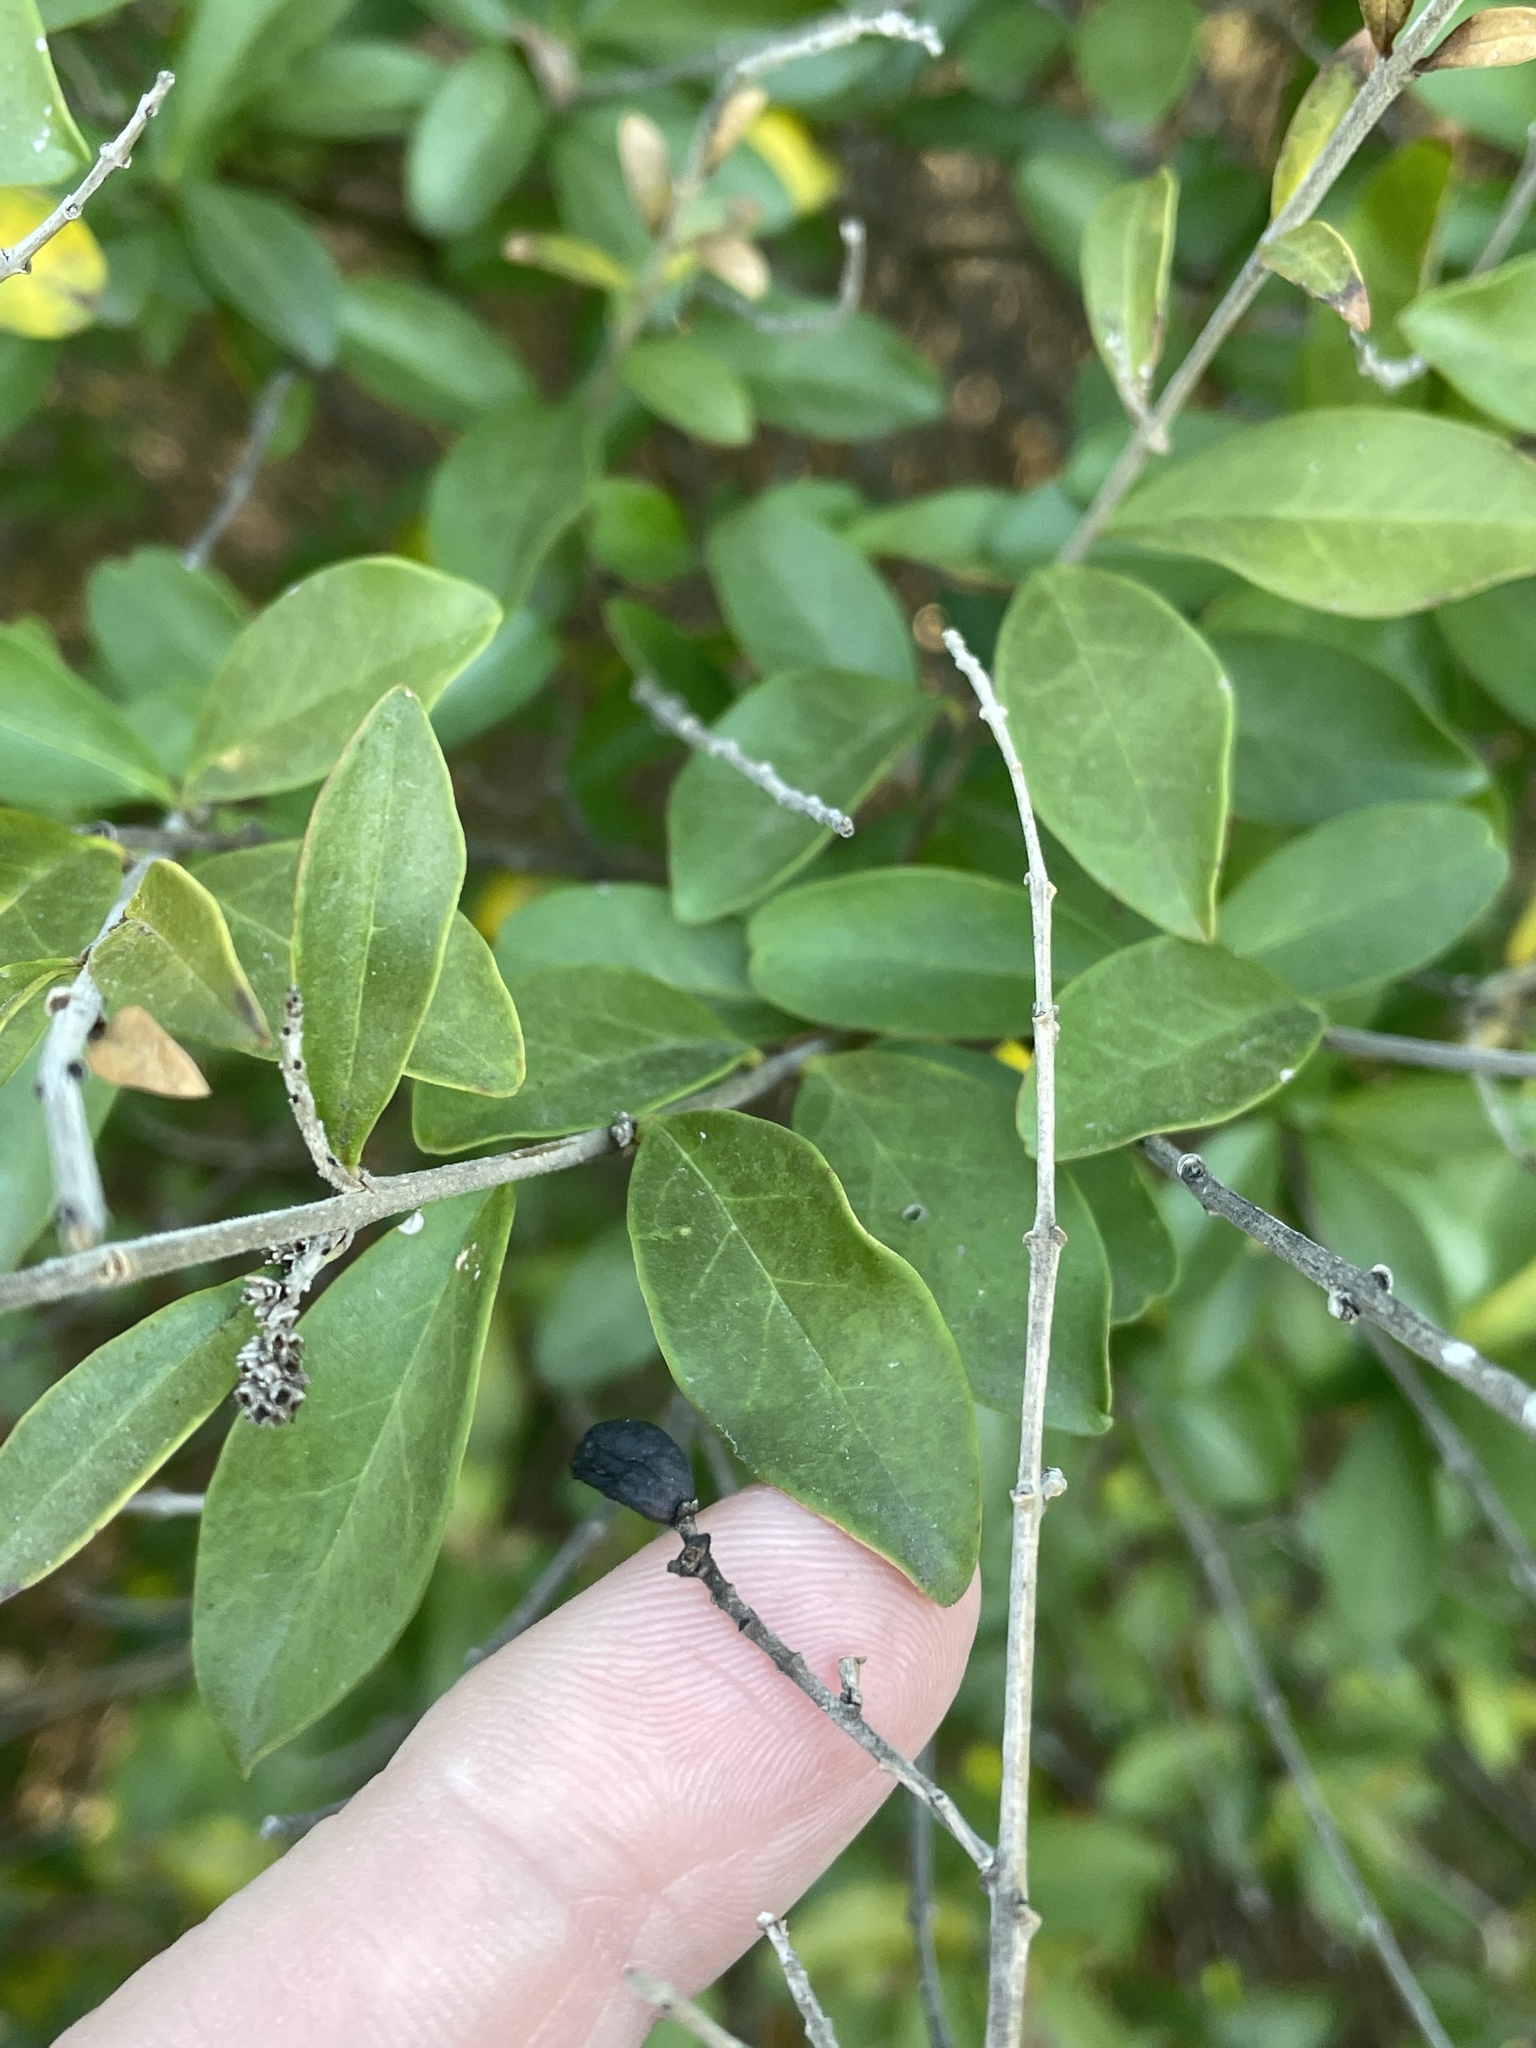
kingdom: Plantae
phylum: Tracheophyta
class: Magnoliopsida
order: Lamiales
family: Oleaceae
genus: Ligustrum
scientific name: Ligustrum quihoui
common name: Waxyleaf privet
